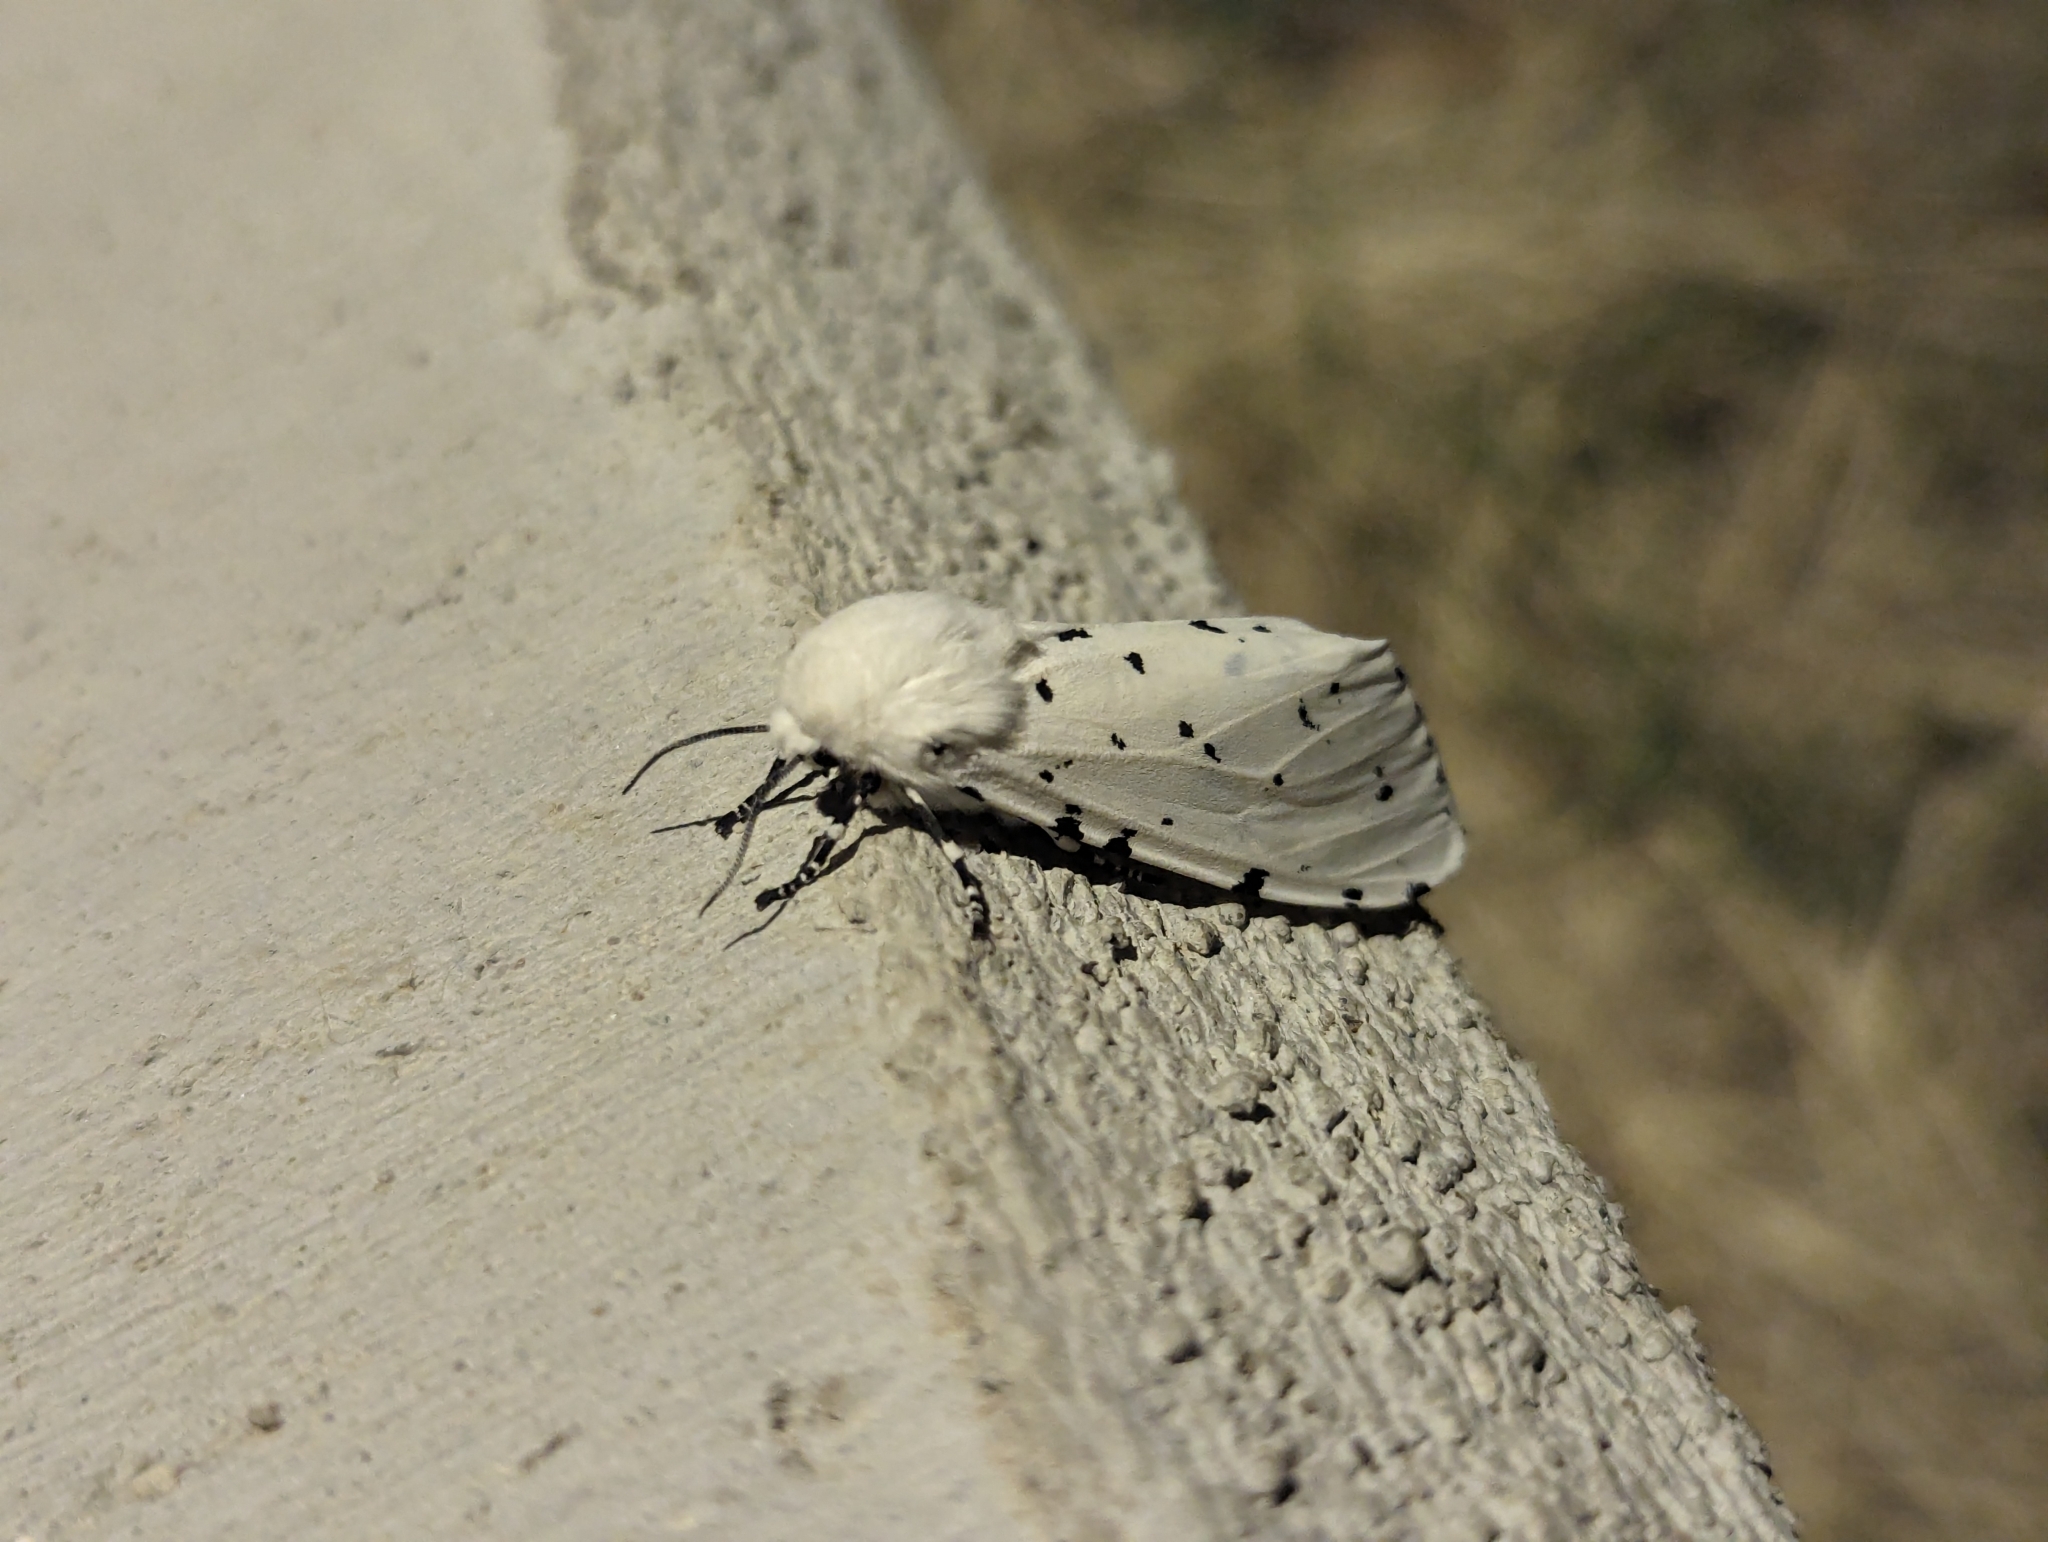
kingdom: Animalia
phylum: Arthropoda
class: Insecta
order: Lepidoptera
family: Erebidae
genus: Estigmene
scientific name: Estigmene acrea
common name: Salt marsh moth
